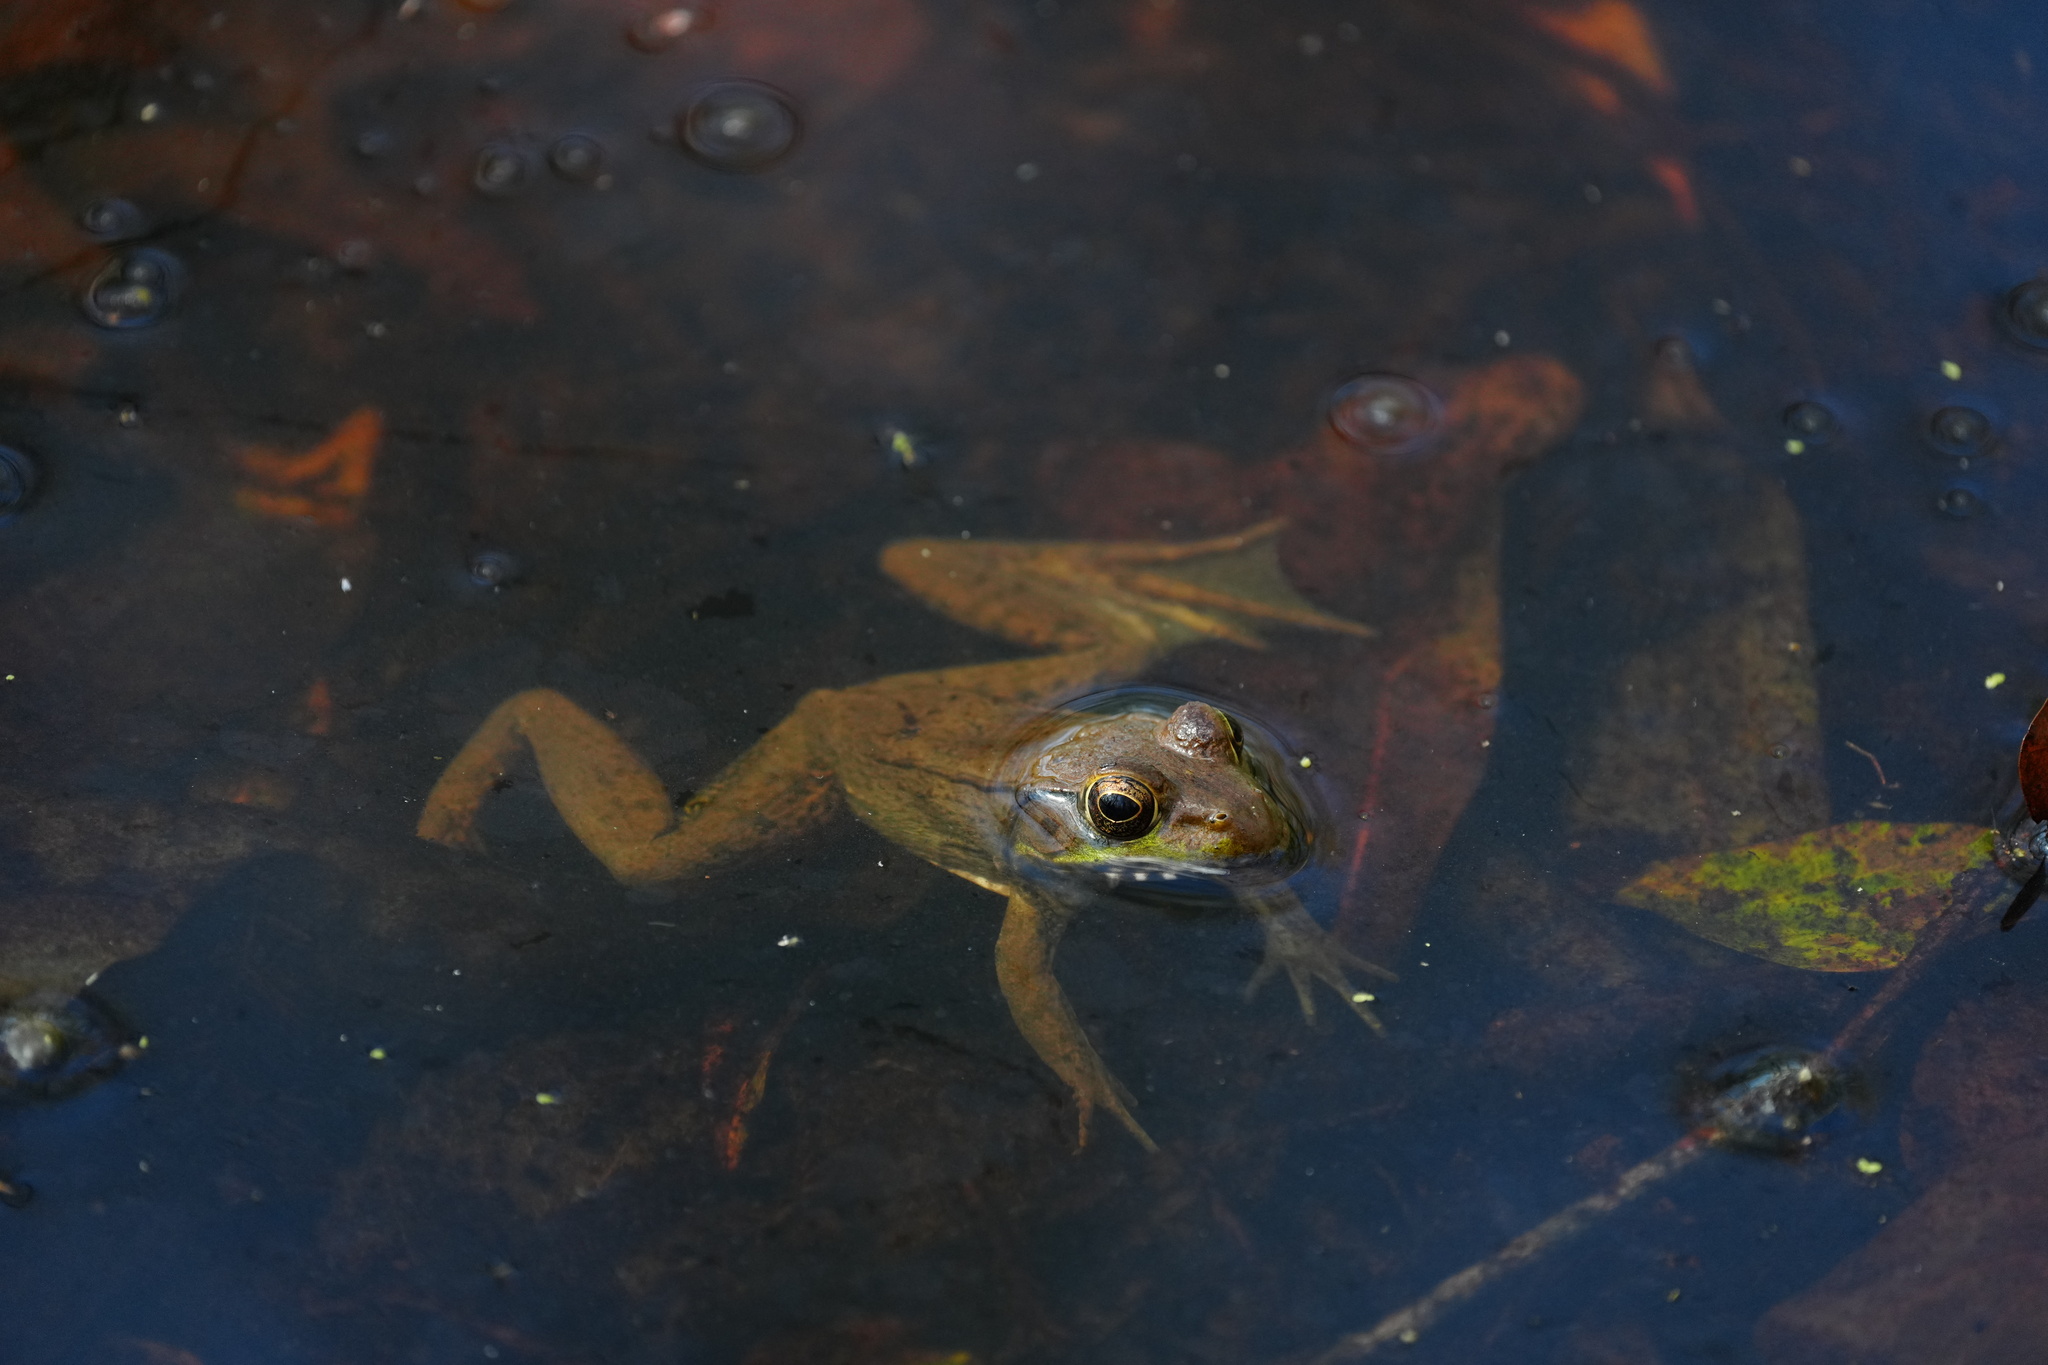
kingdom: Animalia
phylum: Chordata
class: Amphibia
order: Anura
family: Ranidae
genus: Lithobates
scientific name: Lithobates clamitans
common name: Green frog
